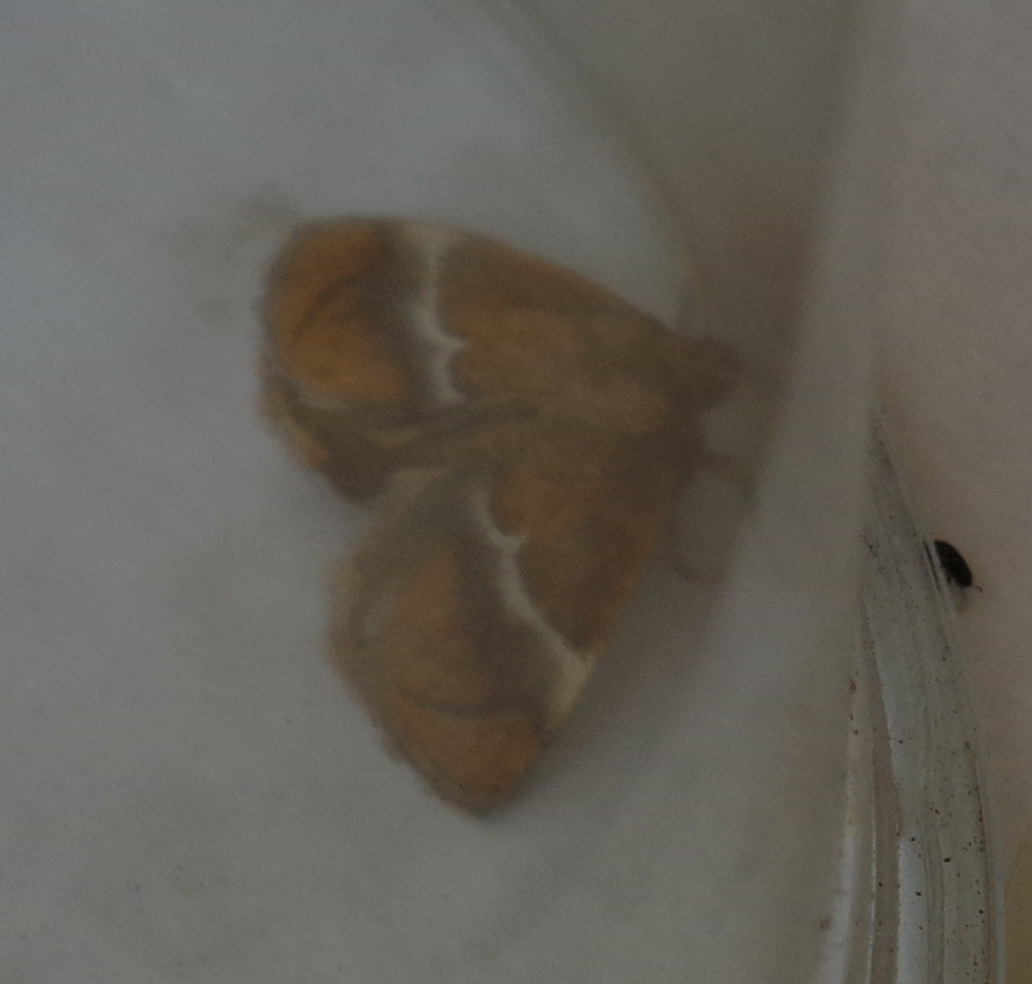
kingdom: Animalia
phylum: Arthropoda
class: Insecta
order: Lepidoptera
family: Limacodidae
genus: Lithacodes
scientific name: Lithacodes fasciola
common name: Yellow-shouldered slug moth
